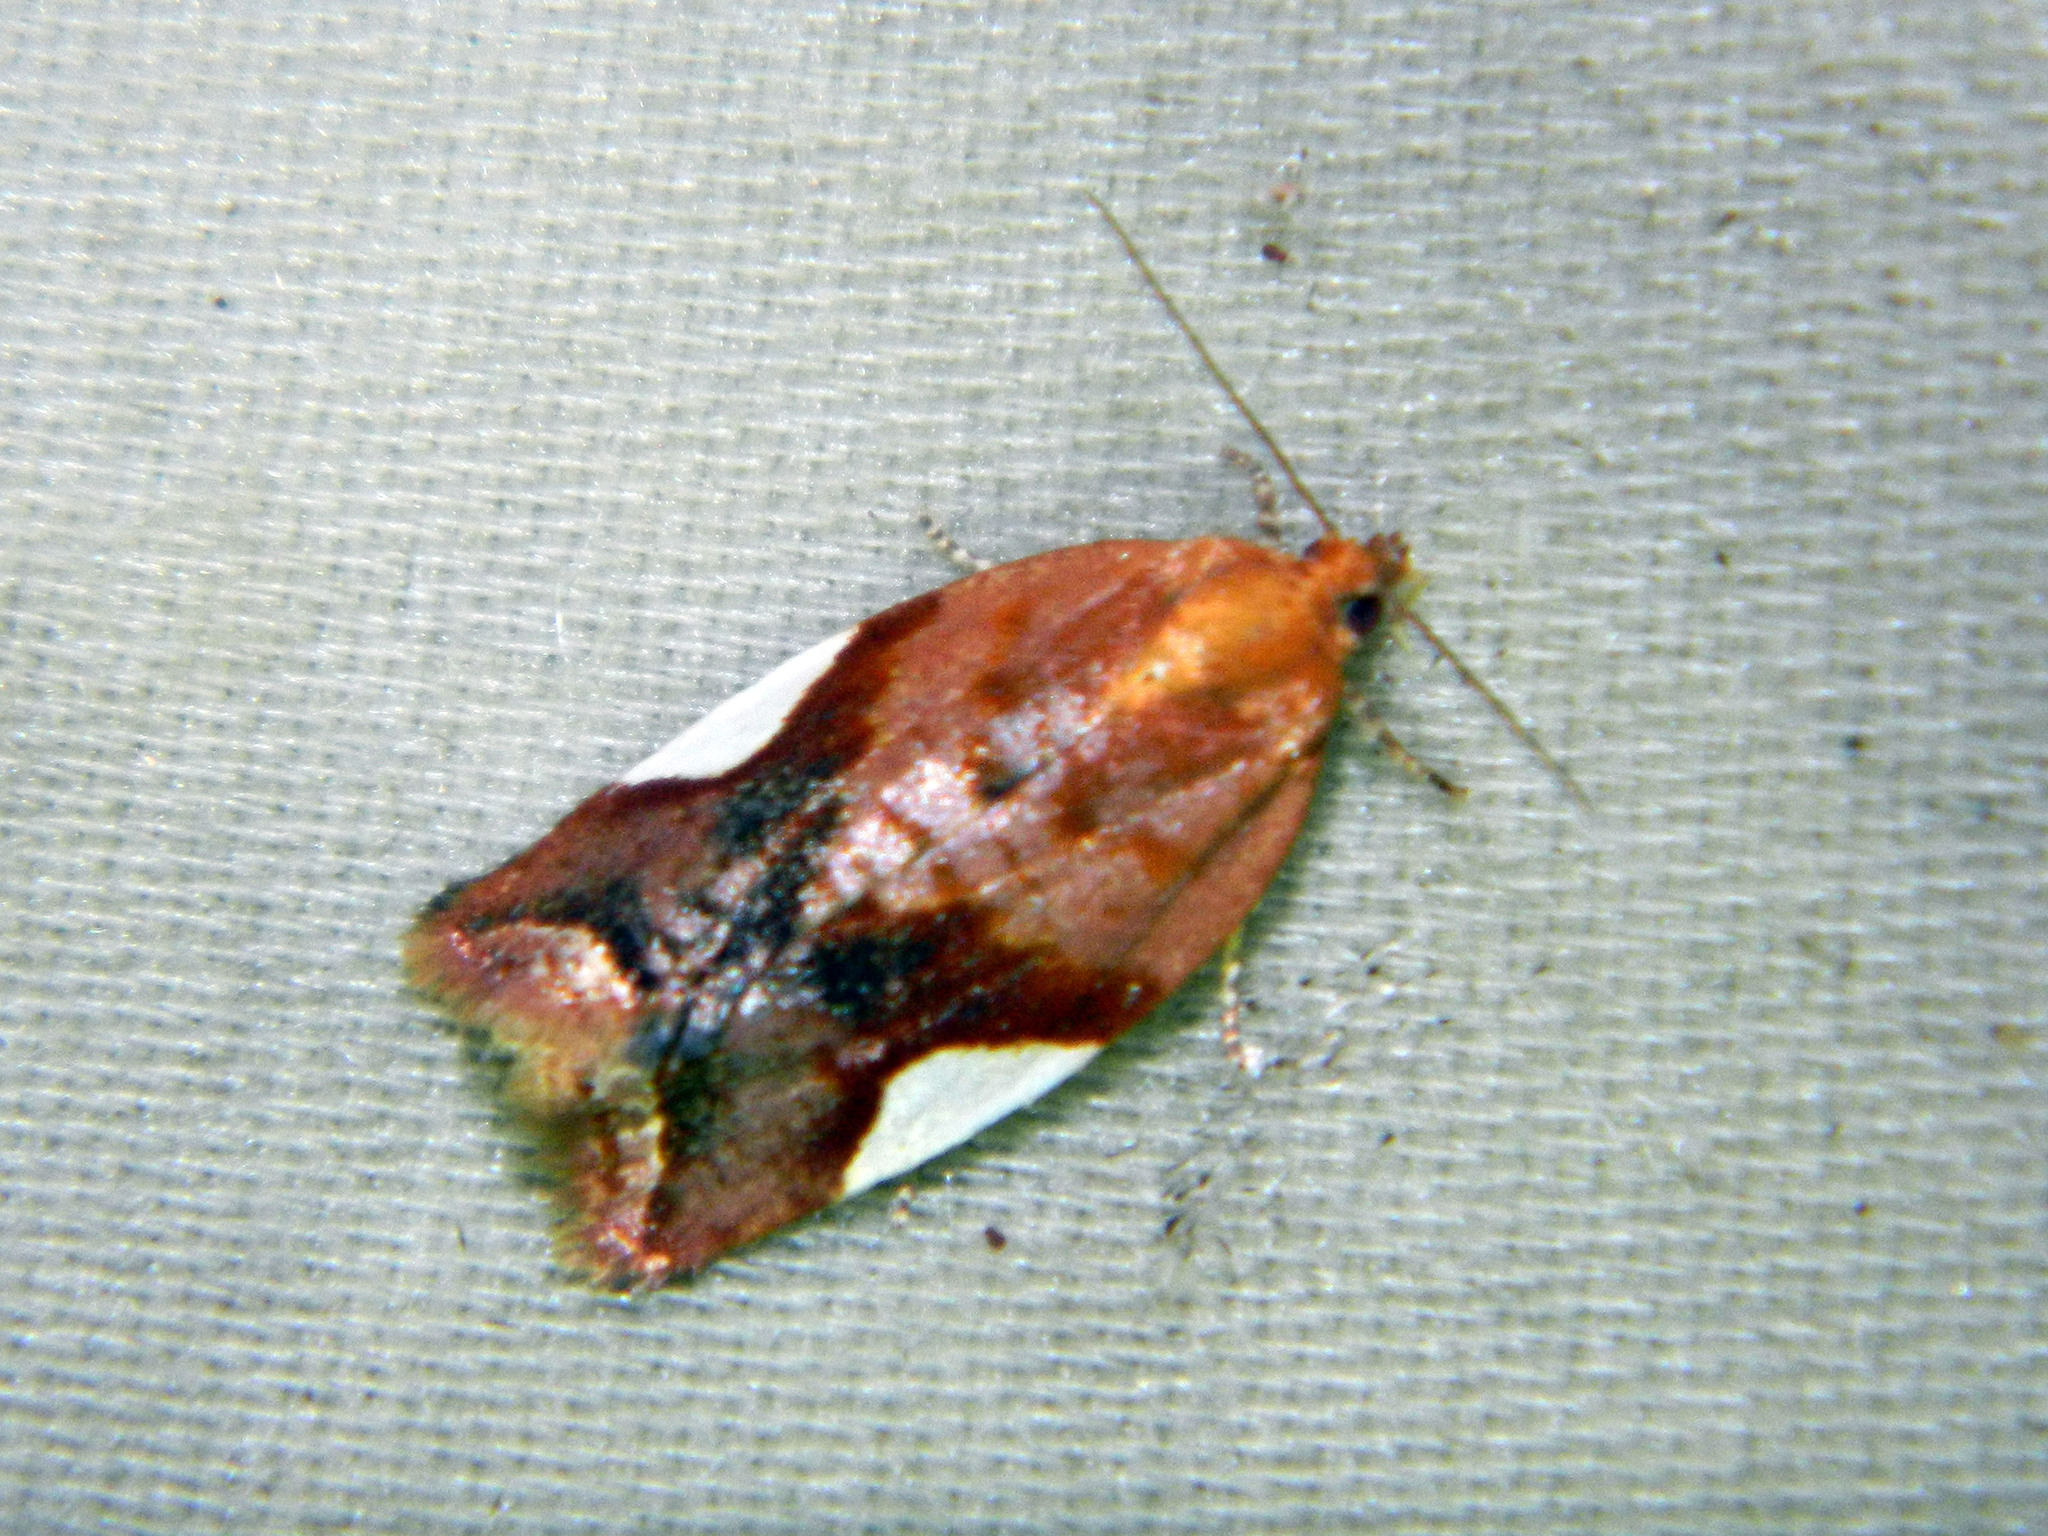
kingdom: Animalia
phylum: Arthropoda
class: Insecta
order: Lepidoptera
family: Tortricidae
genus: Clepsis
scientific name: Clepsis persicana
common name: White triangle tortrix
